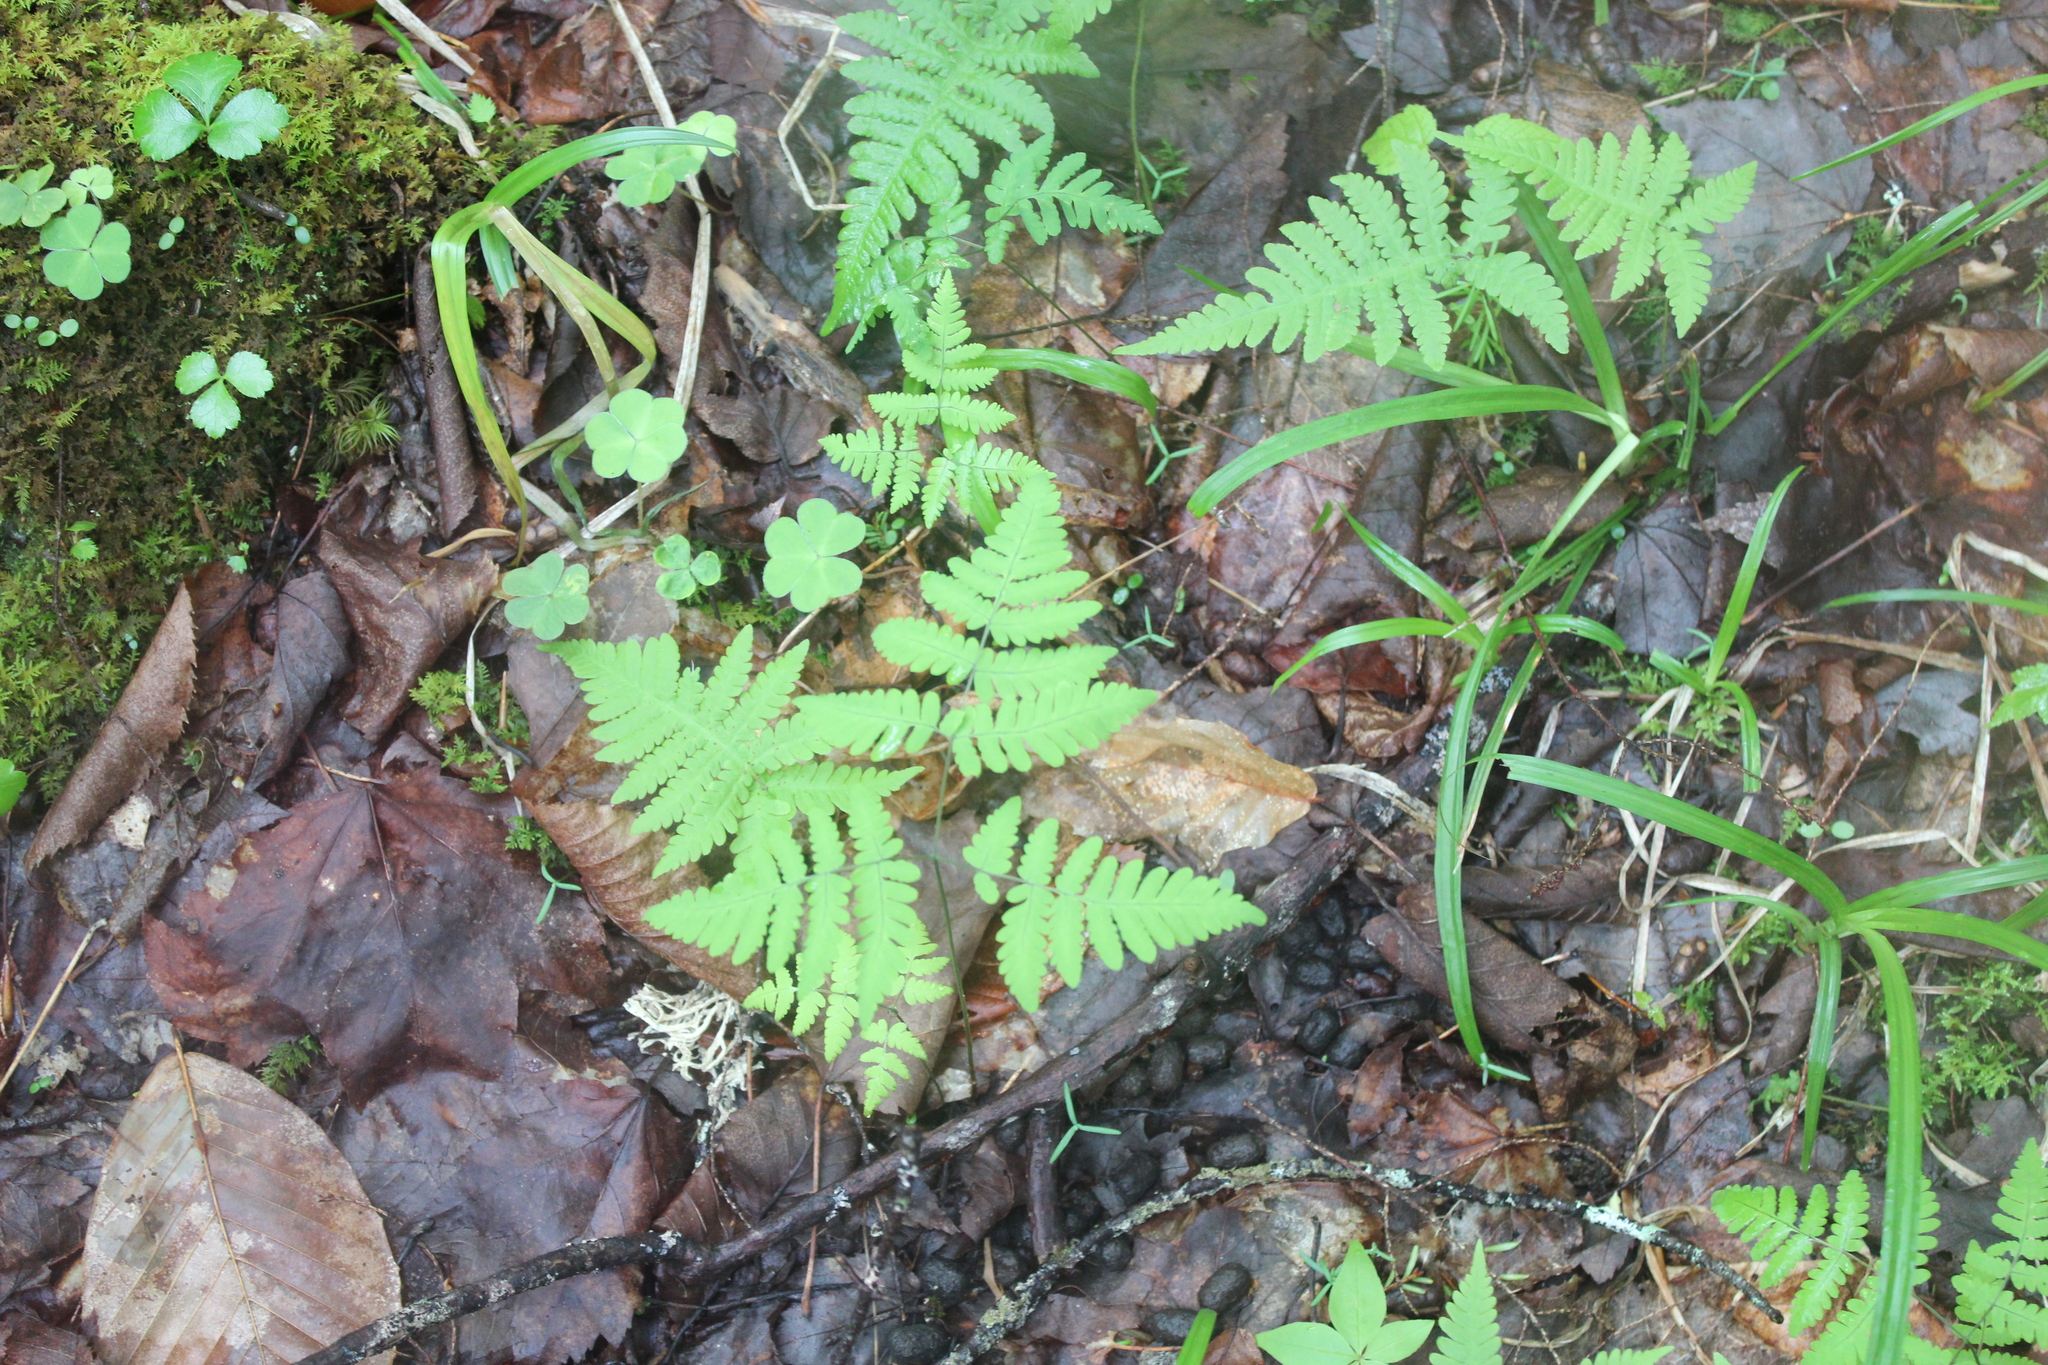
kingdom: Plantae
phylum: Tracheophyta
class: Polypodiopsida
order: Polypodiales
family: Cystopteridaceae
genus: Gymnocarpium
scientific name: Gymnocarpium dryopteris
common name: Oak fern
